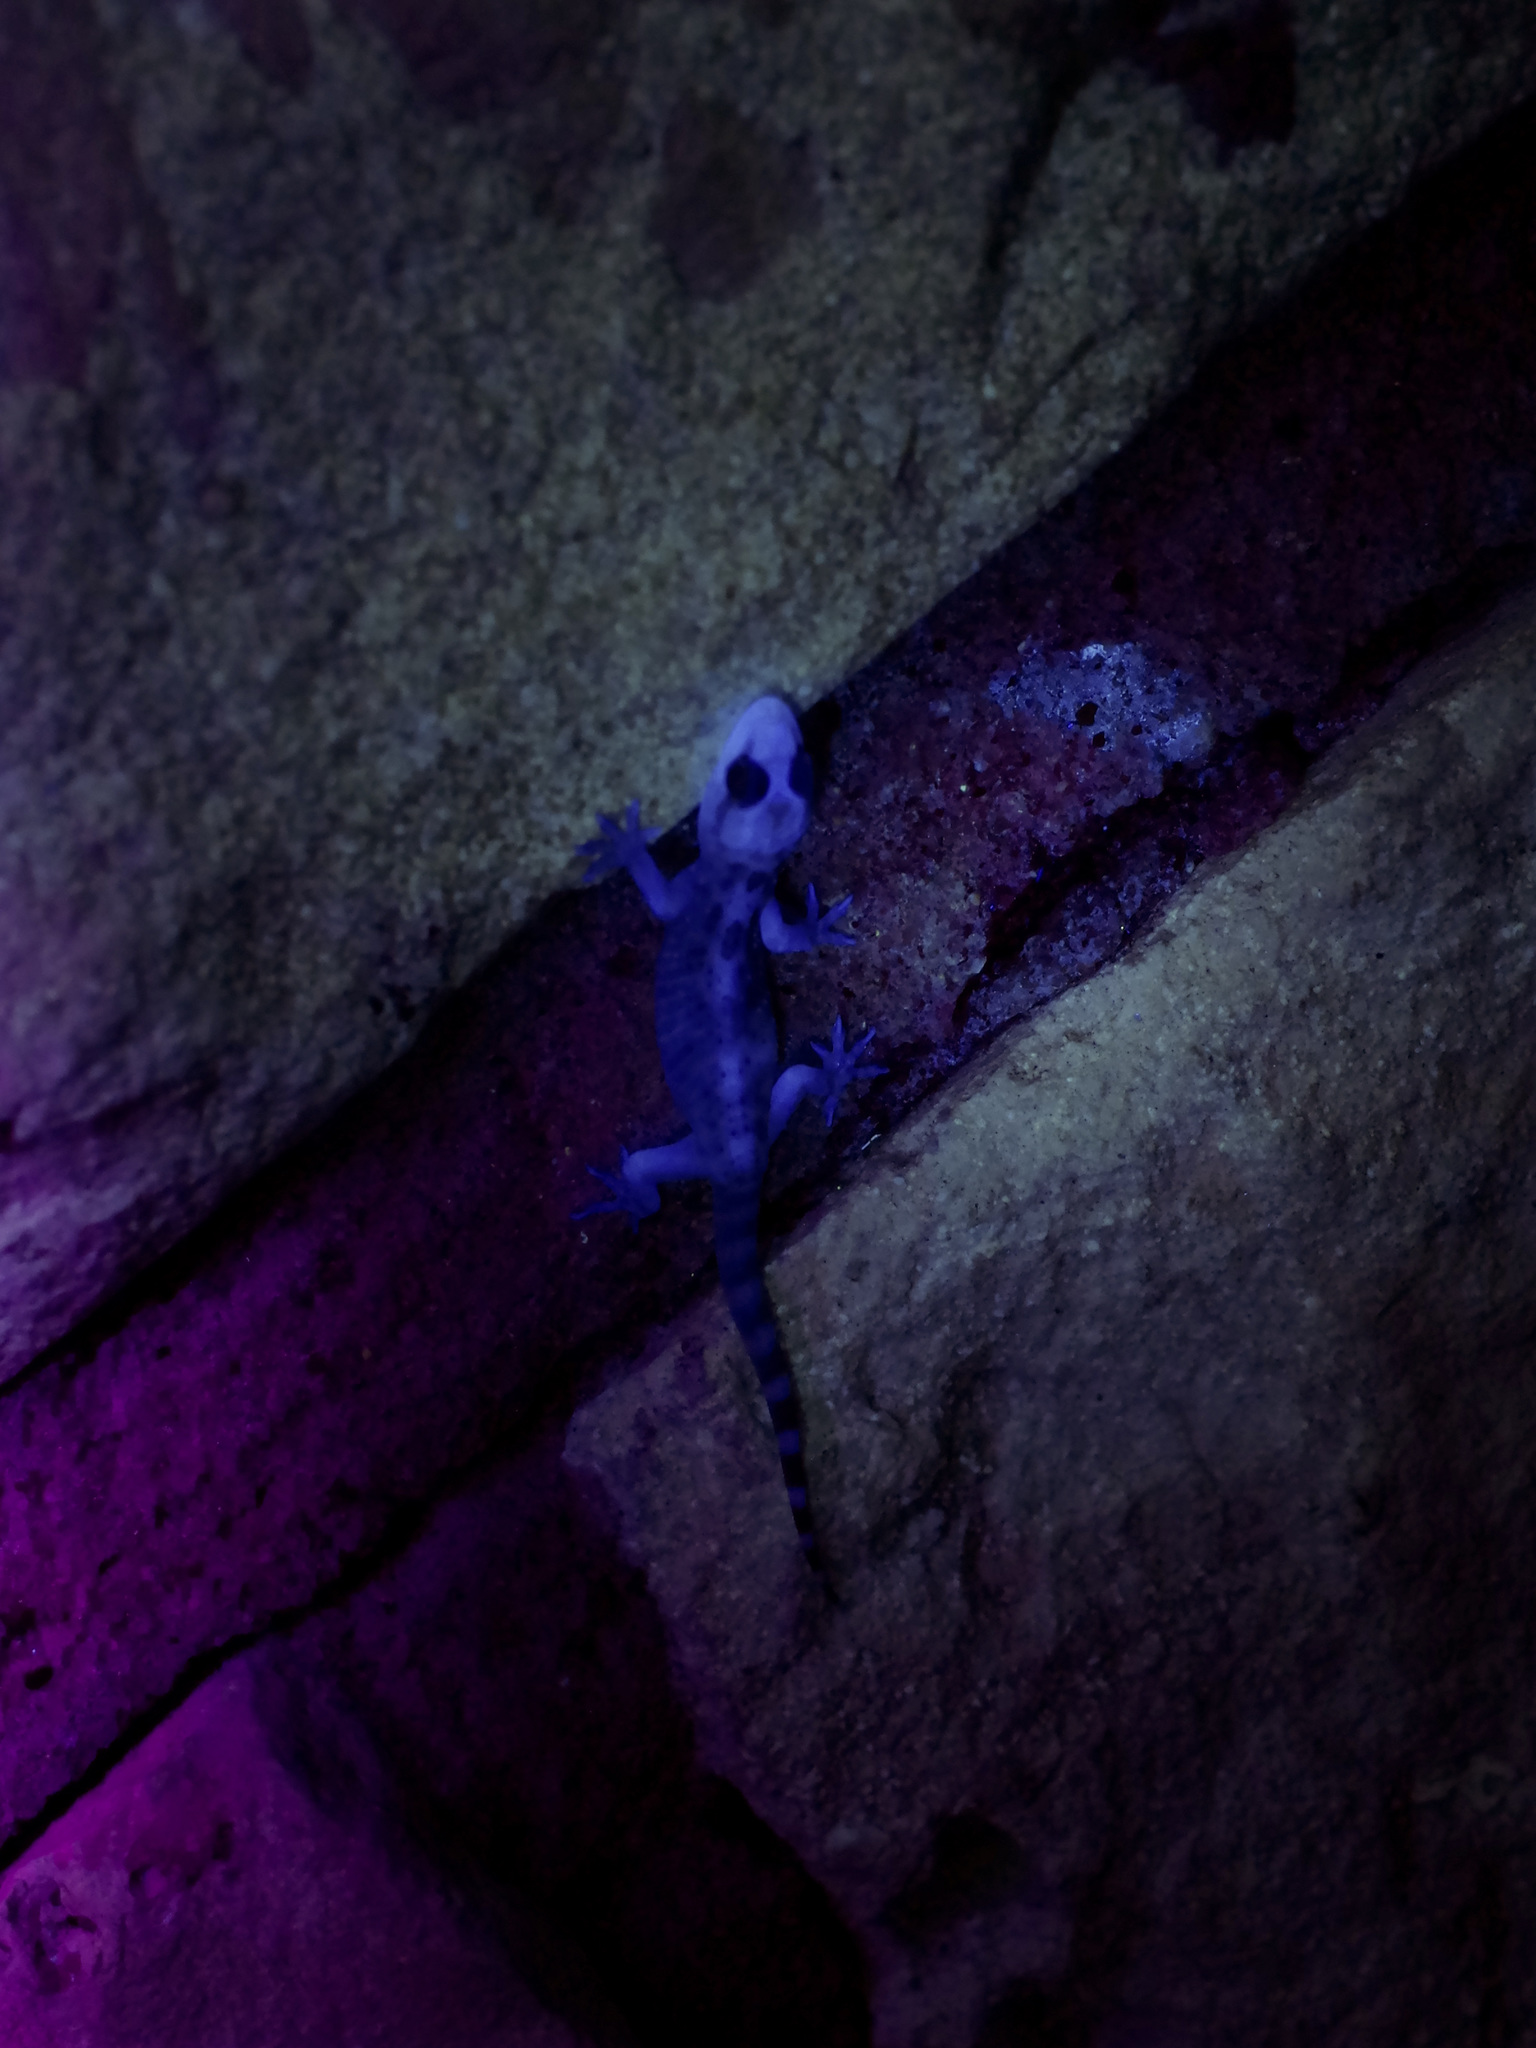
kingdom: Animalia
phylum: Chordata
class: Squamata
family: Gekkonidae
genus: Hemidactylus
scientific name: Hemidactylus turcicus
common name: Turkish gecko
